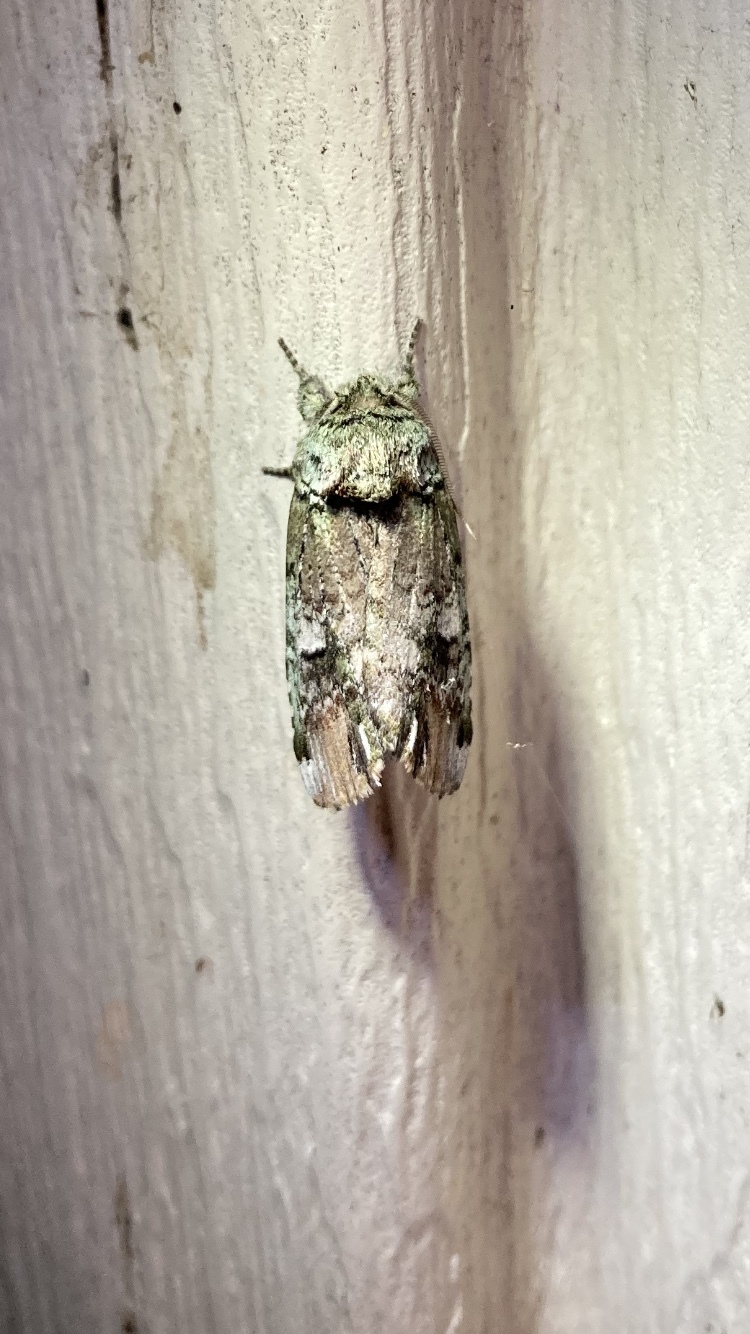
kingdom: Animalia
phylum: Arthropoda
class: Insecta
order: Lepidoptera
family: Notodontidae
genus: Schizura
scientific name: Schizura
